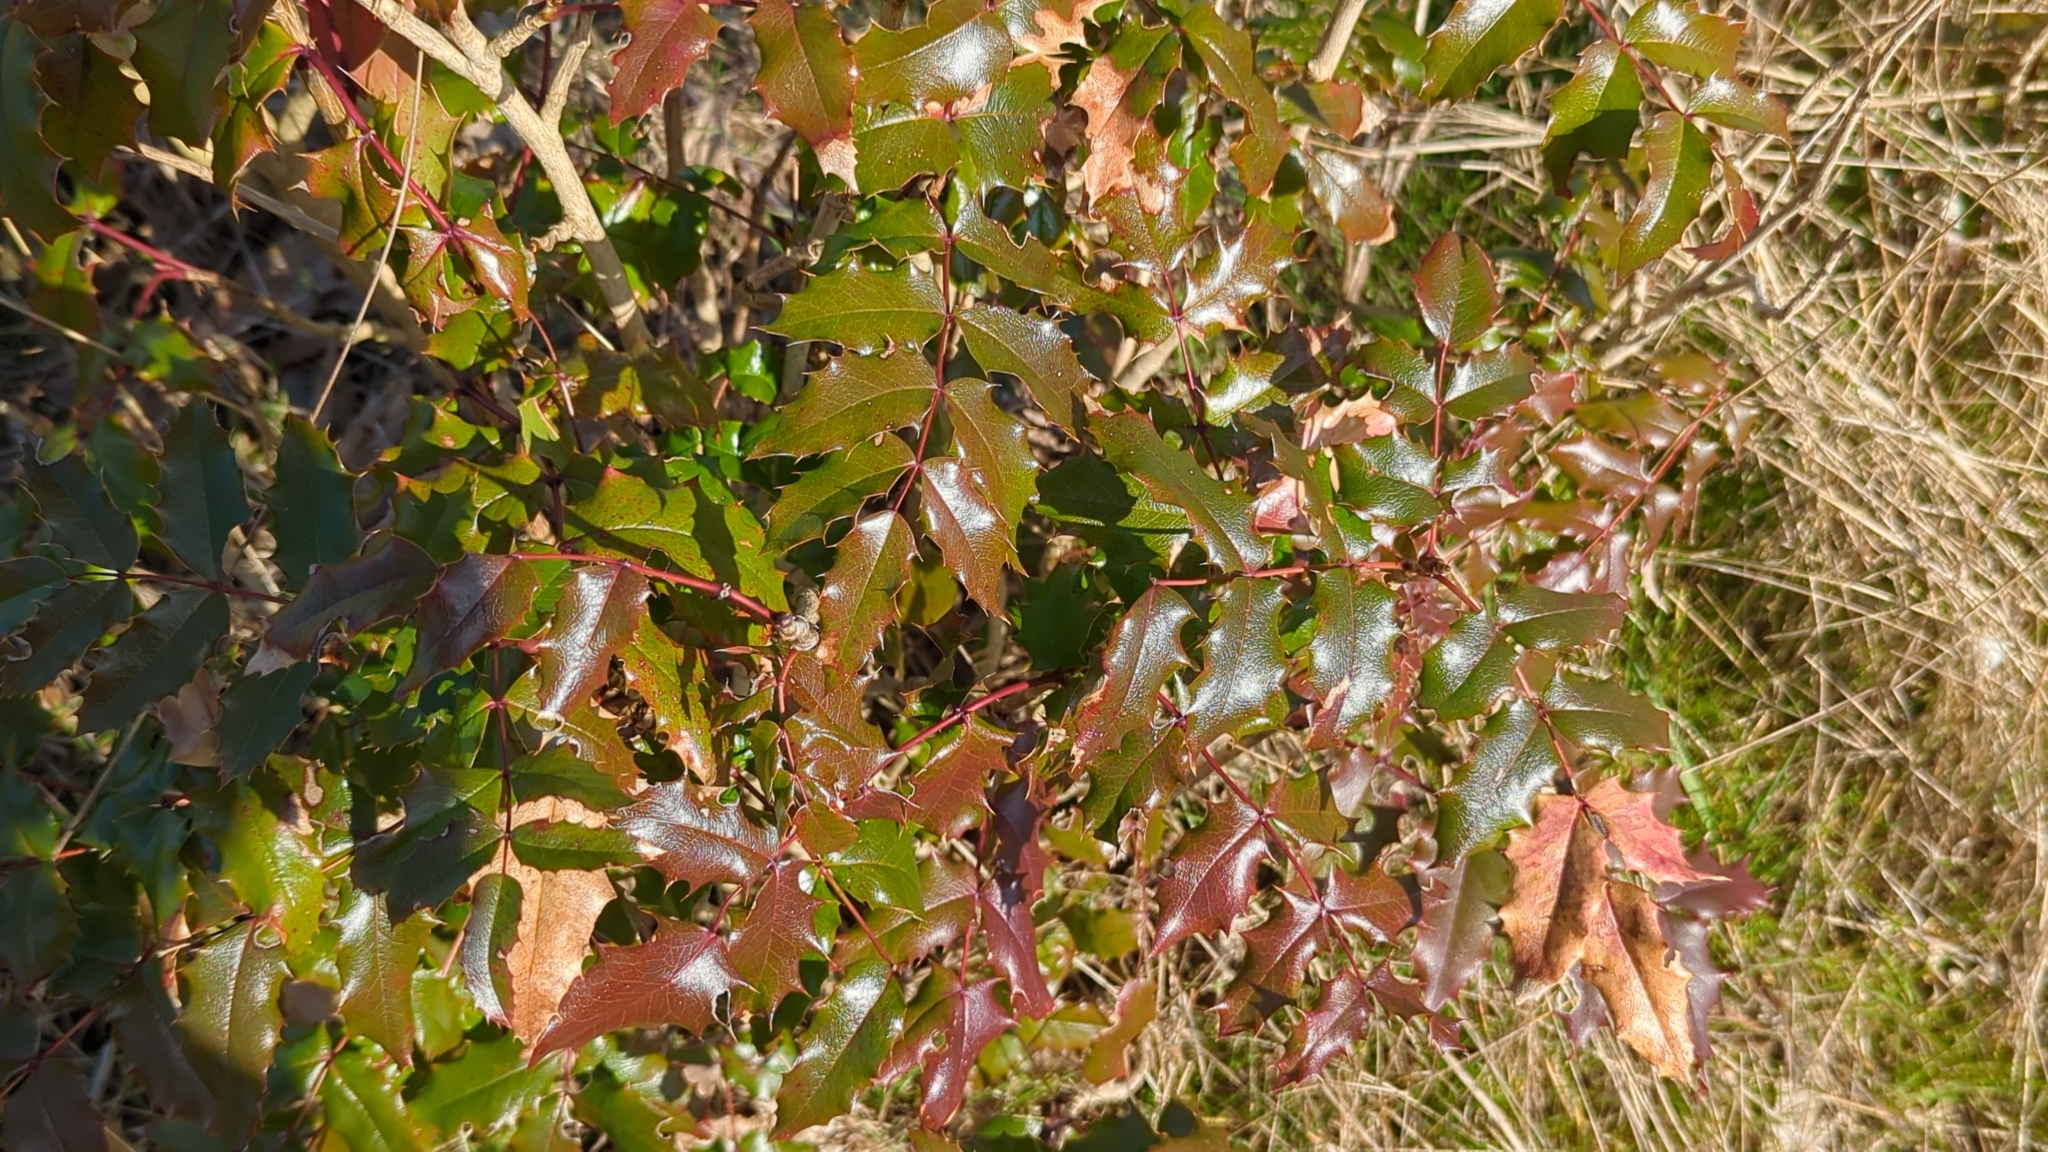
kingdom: Plantae
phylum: Tracheophyta
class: Magnoliopsida
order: Ranunculales
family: Berberidaceae
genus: Mahonia
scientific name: Mahonia aquifolium
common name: Oregon-grape
